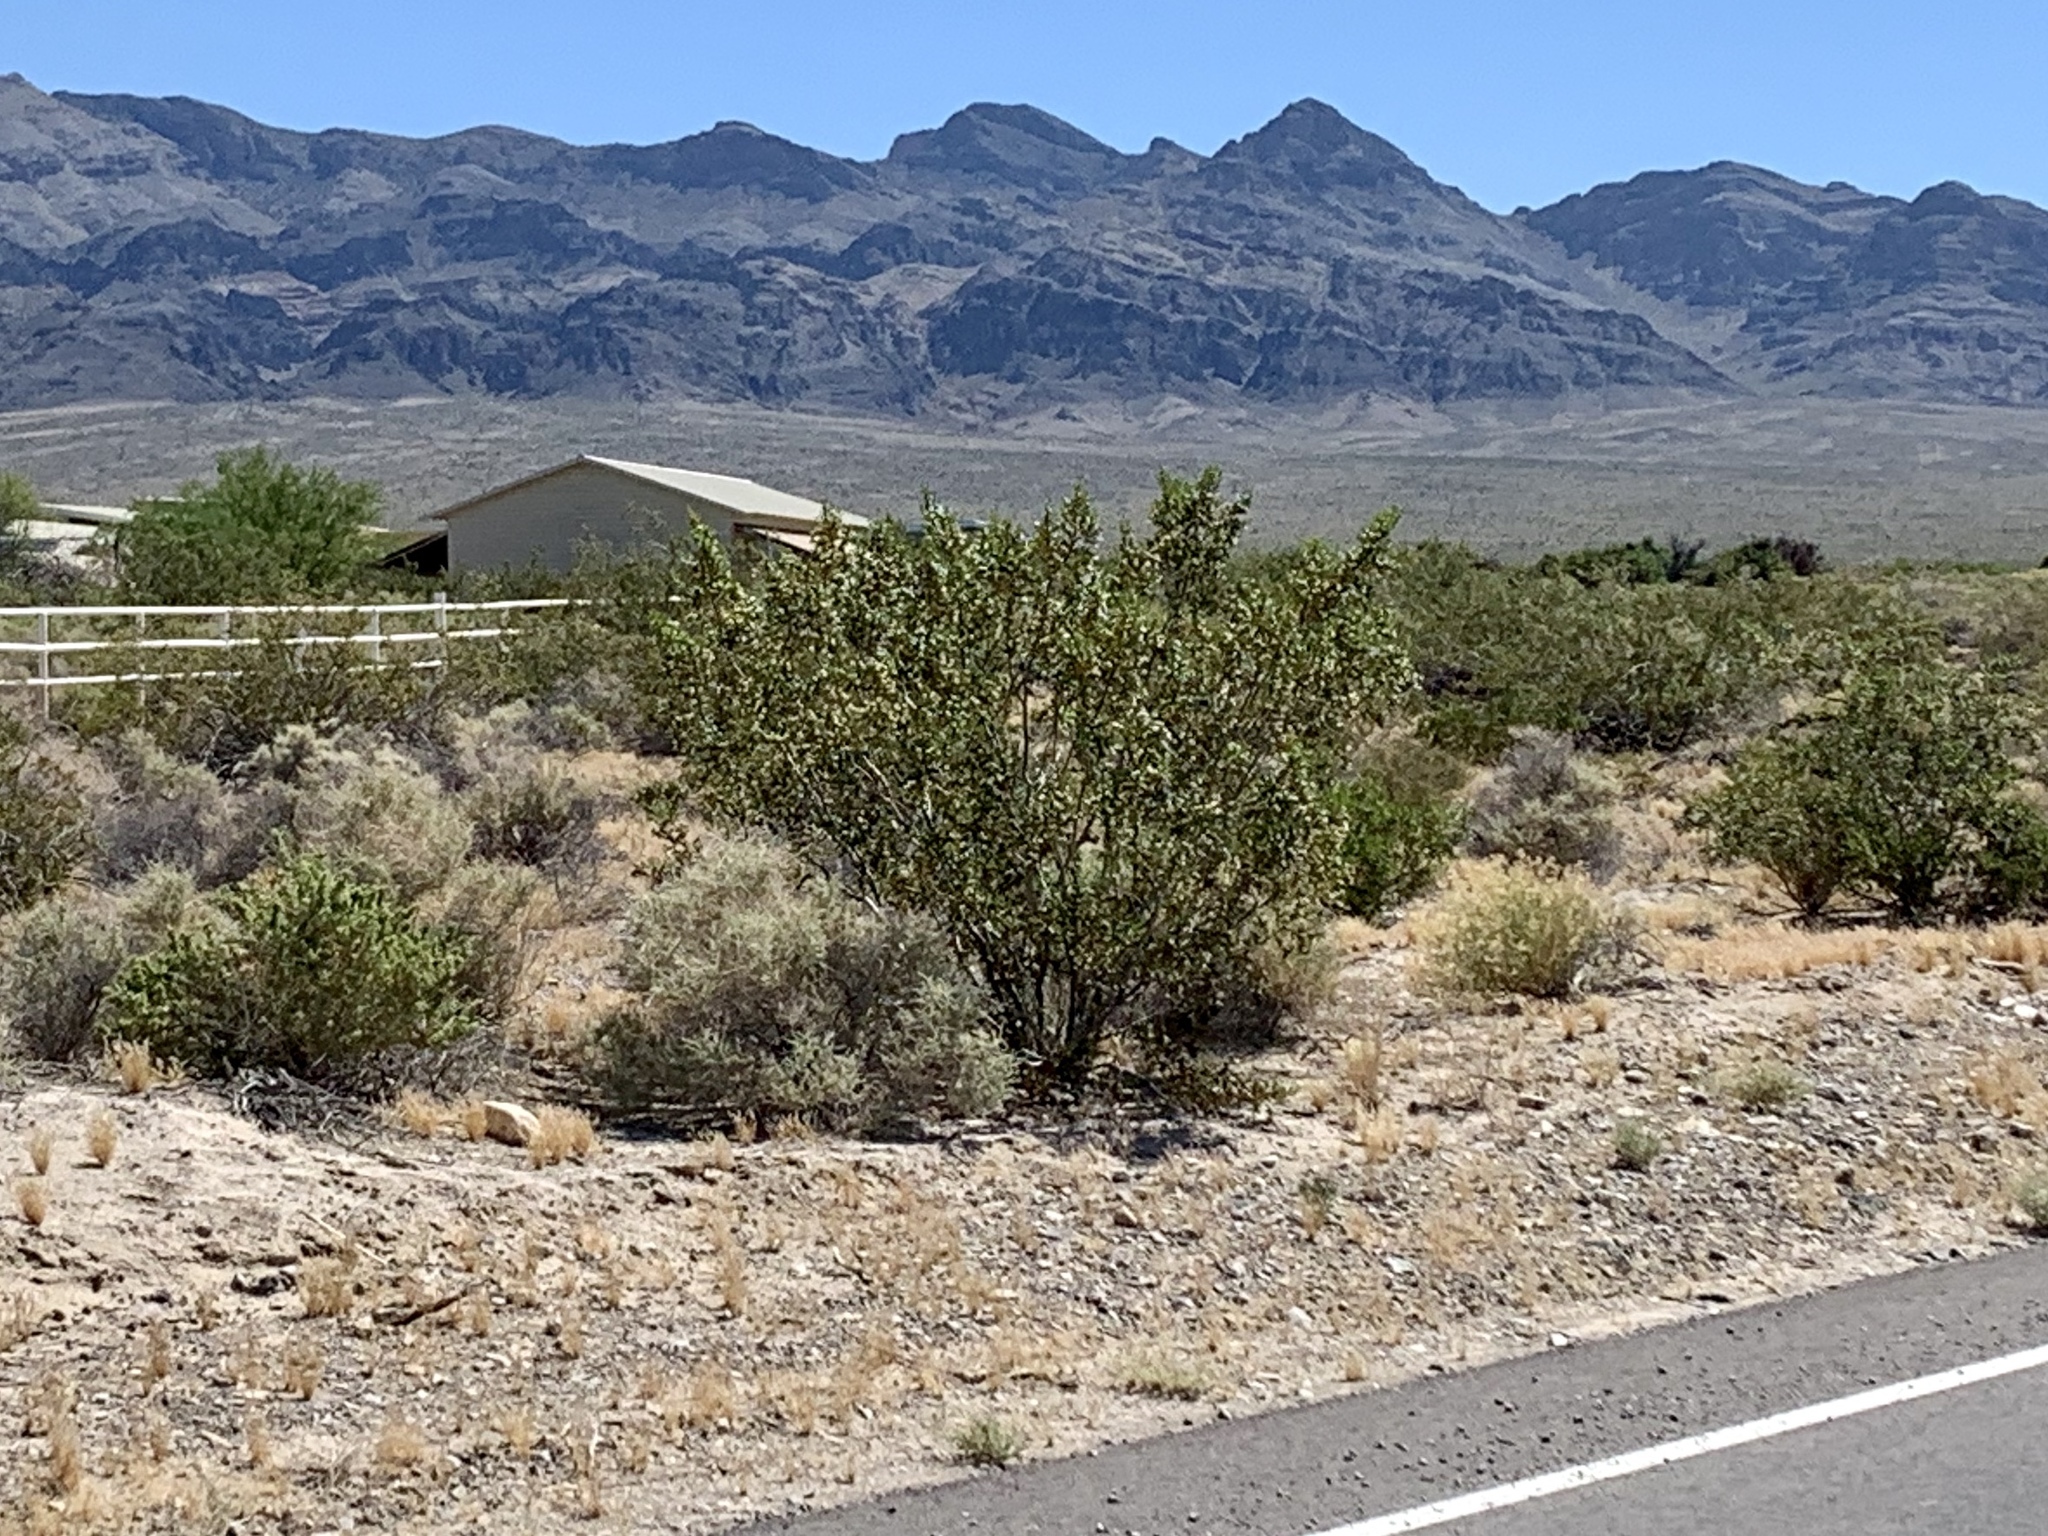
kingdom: Plantae
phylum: Tracheophyta
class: Magnoliopsida
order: Zygophyllales
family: Zygophyllaceae
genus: Larrea
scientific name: Larrea tridentata
